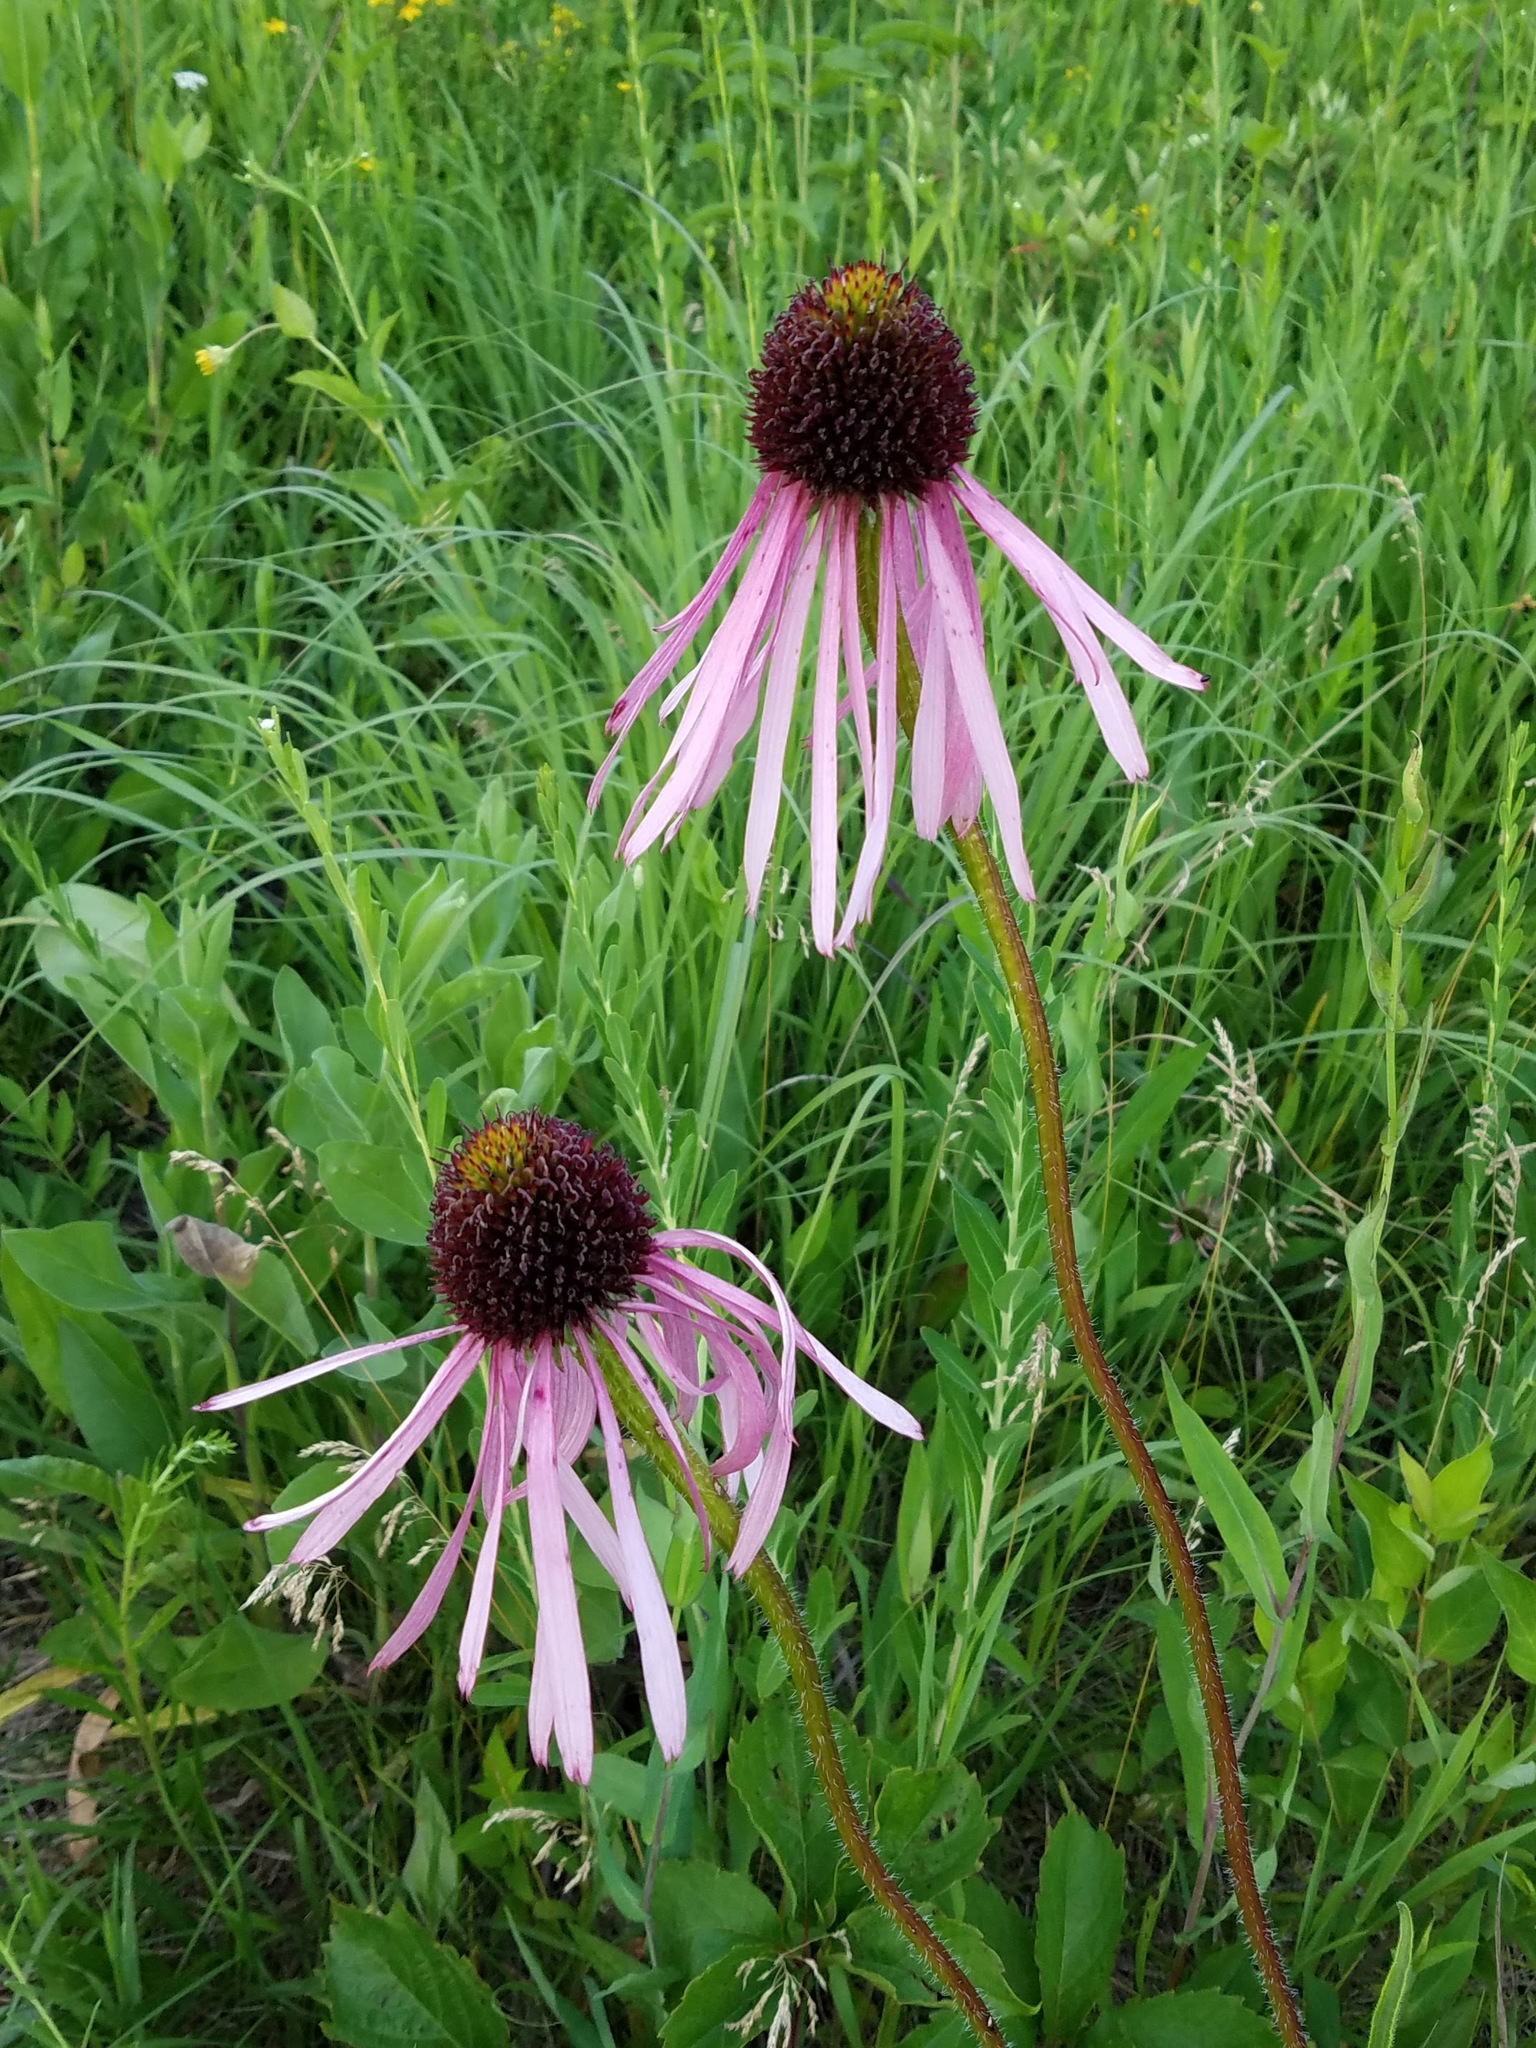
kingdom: Plantae
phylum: Tracheophyta
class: Magnoliopsida
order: Asterales
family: Asteraceae
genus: Echinacea
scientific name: Echinacea pallida
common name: Pale echinacea
